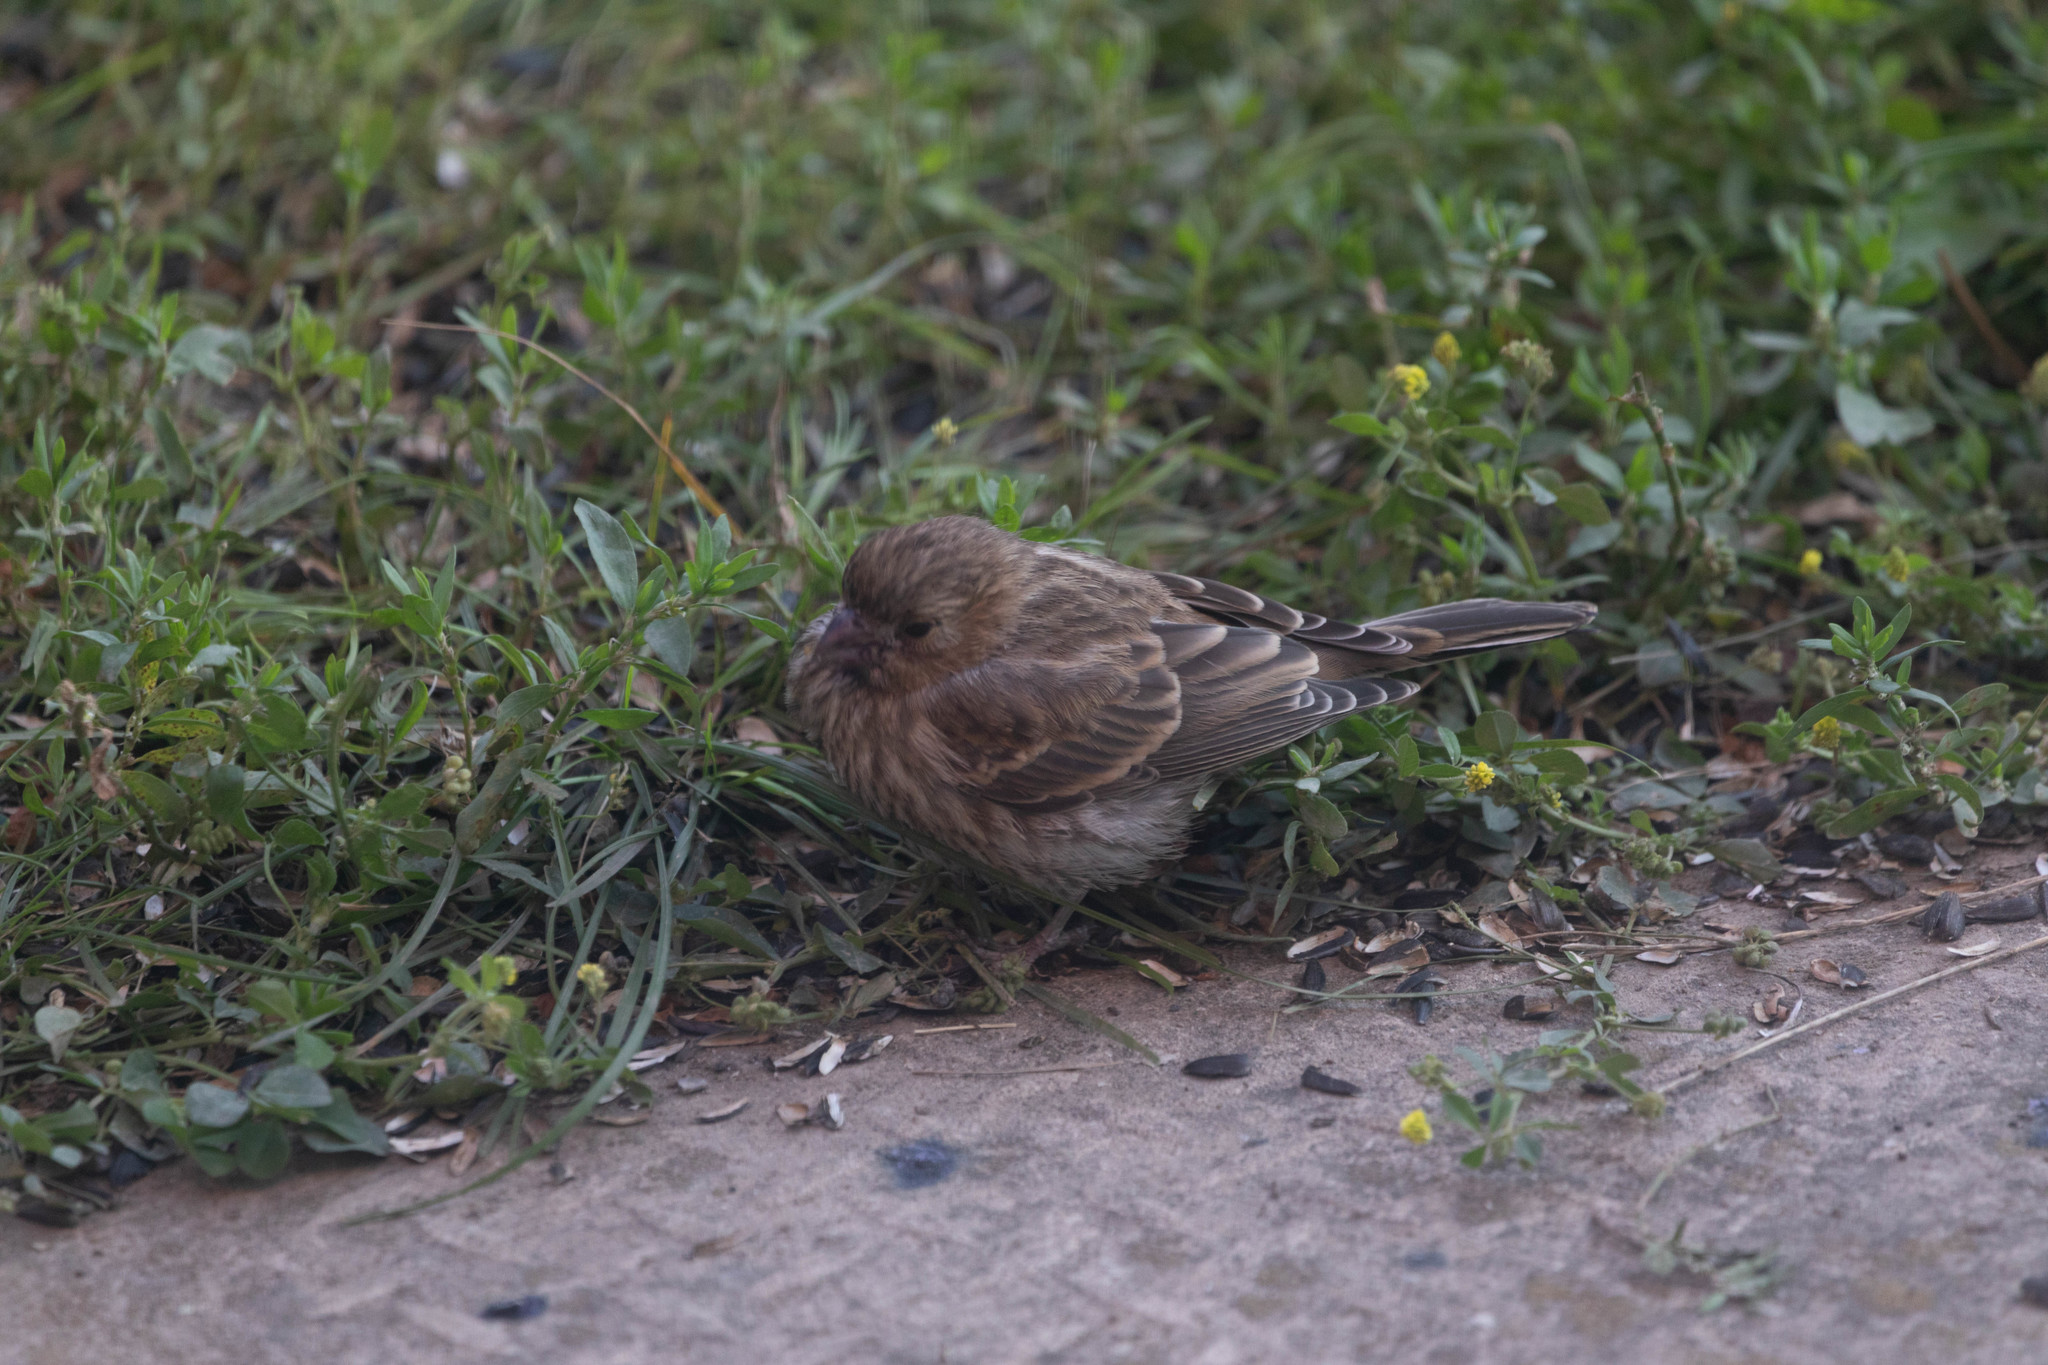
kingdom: Animalia
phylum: Chordata
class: Aves
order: Passeriformes
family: Fringillidae
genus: Haemorhous
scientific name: Haemorhous mexicanus
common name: House finch
